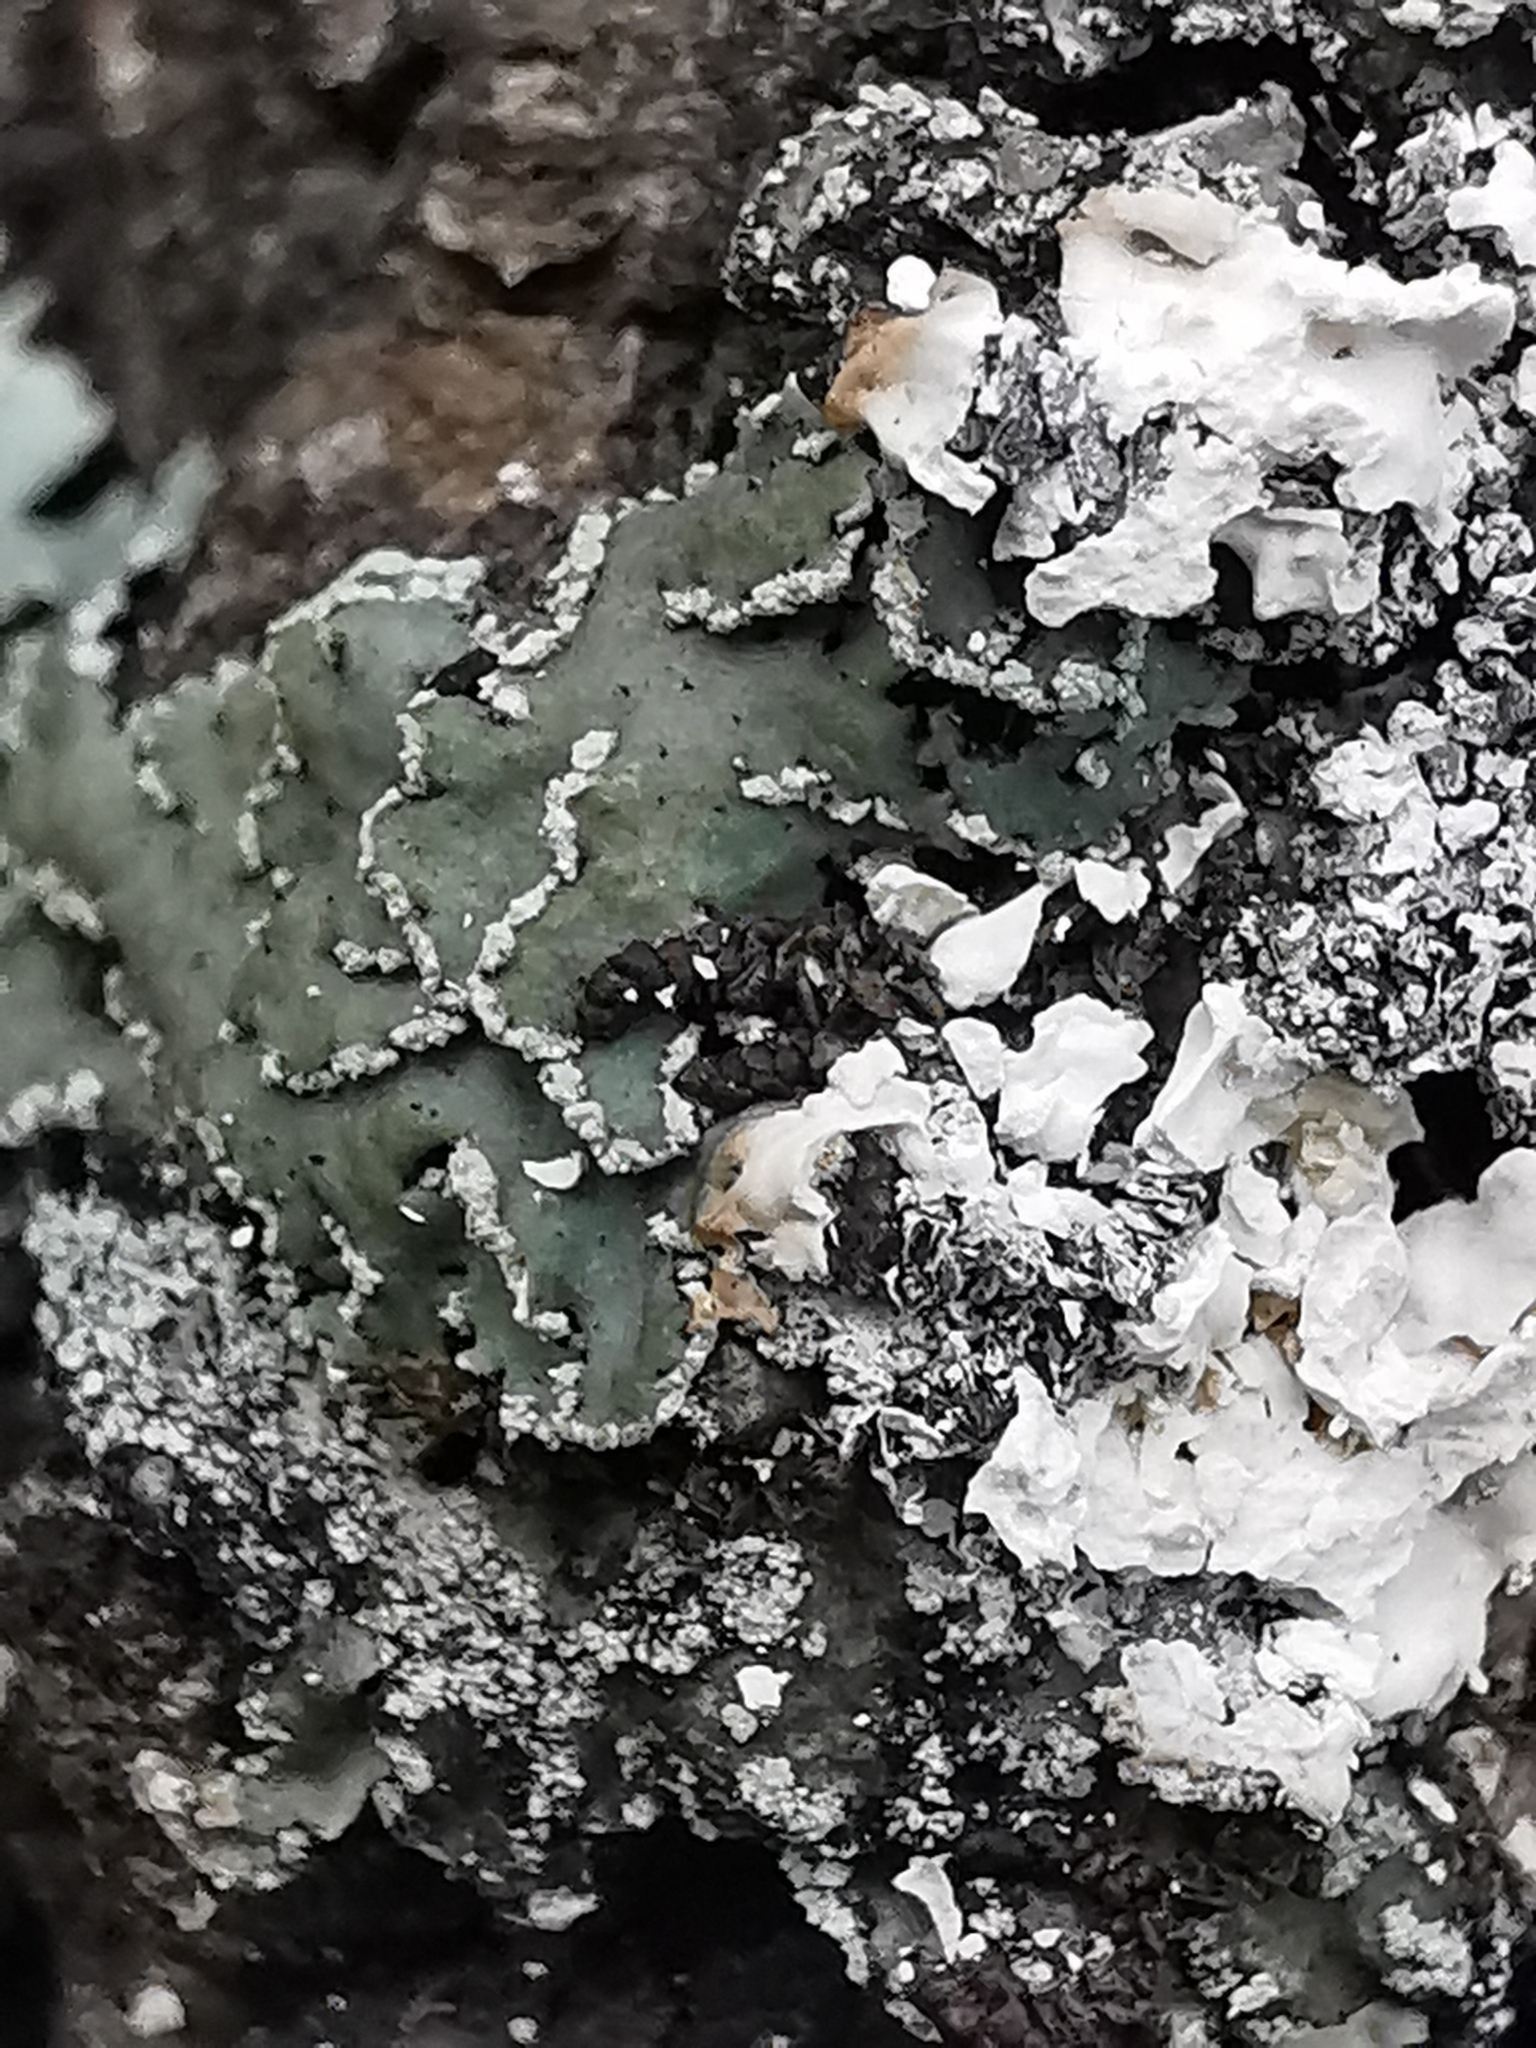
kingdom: Fungi
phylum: Ascomycota
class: Lecanoromycetes
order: Caliciales
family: Physciaceae
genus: Physcia
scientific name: Physcia atrostriata
